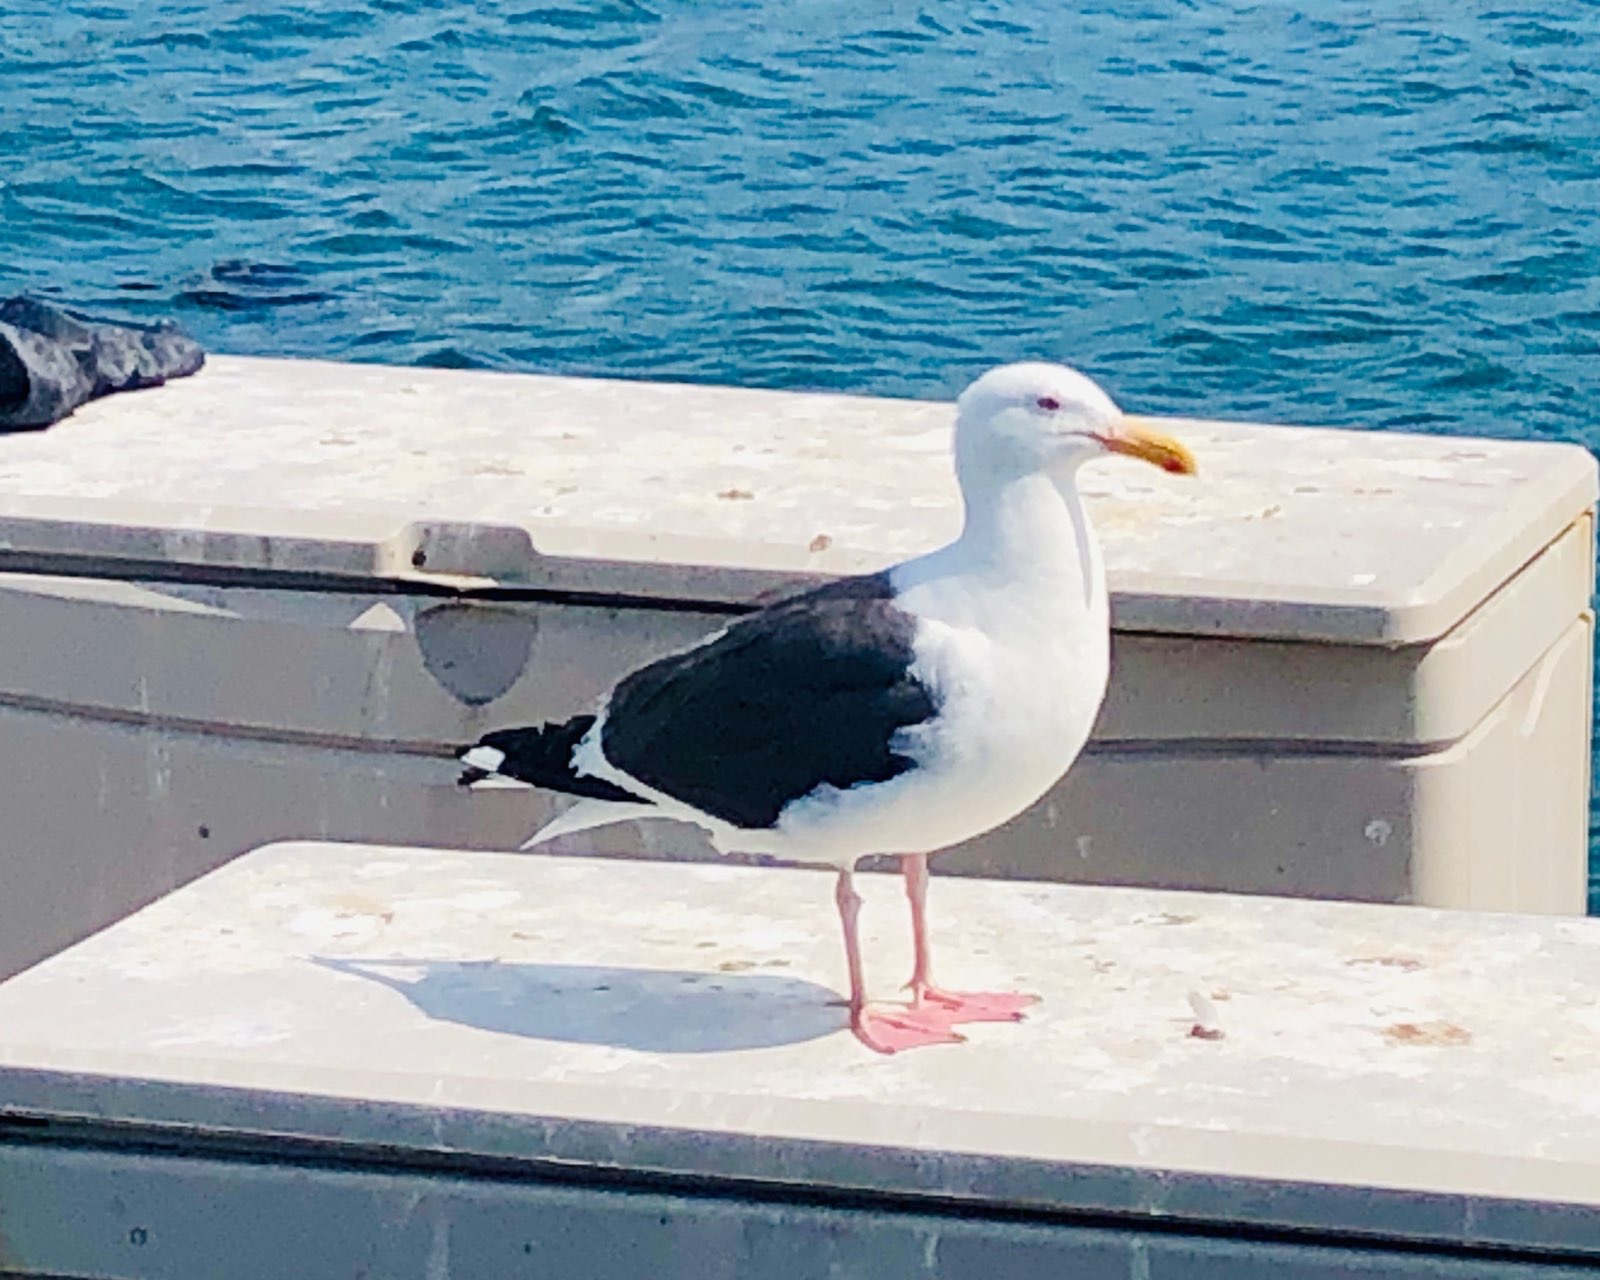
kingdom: Animalia
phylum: Chordata
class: Aves
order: Charadriiformes
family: Laridae
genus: Larus
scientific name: Larus occidentalis
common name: Western gull
